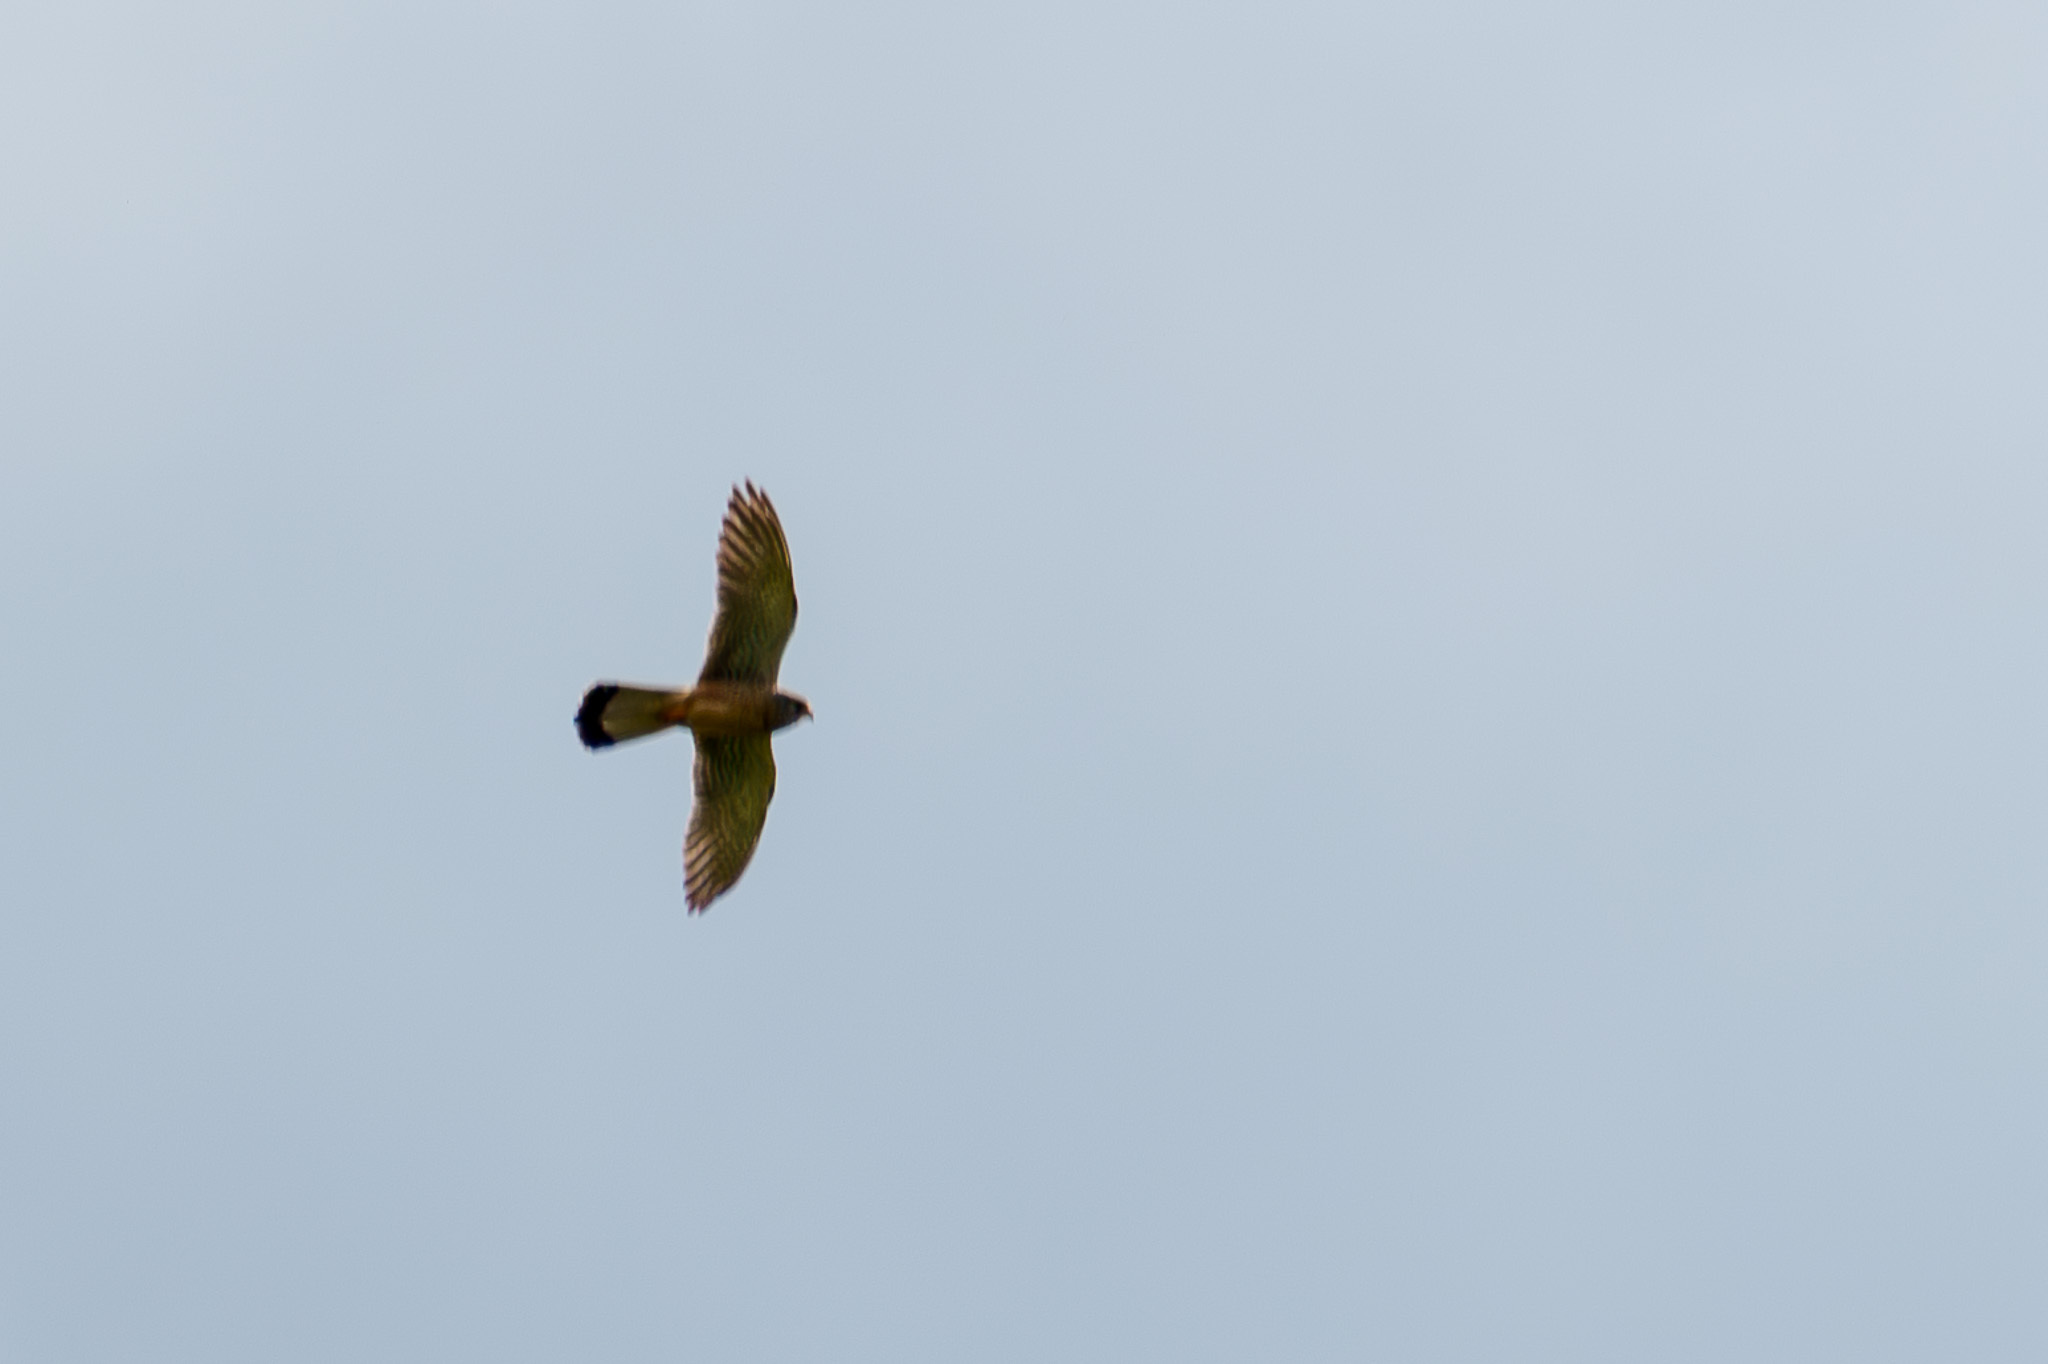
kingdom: Animalia
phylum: Chordata
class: Aves
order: Falconiformes
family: Falconidae
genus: Falco
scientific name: Falco tinnunculus
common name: Common kestrel
